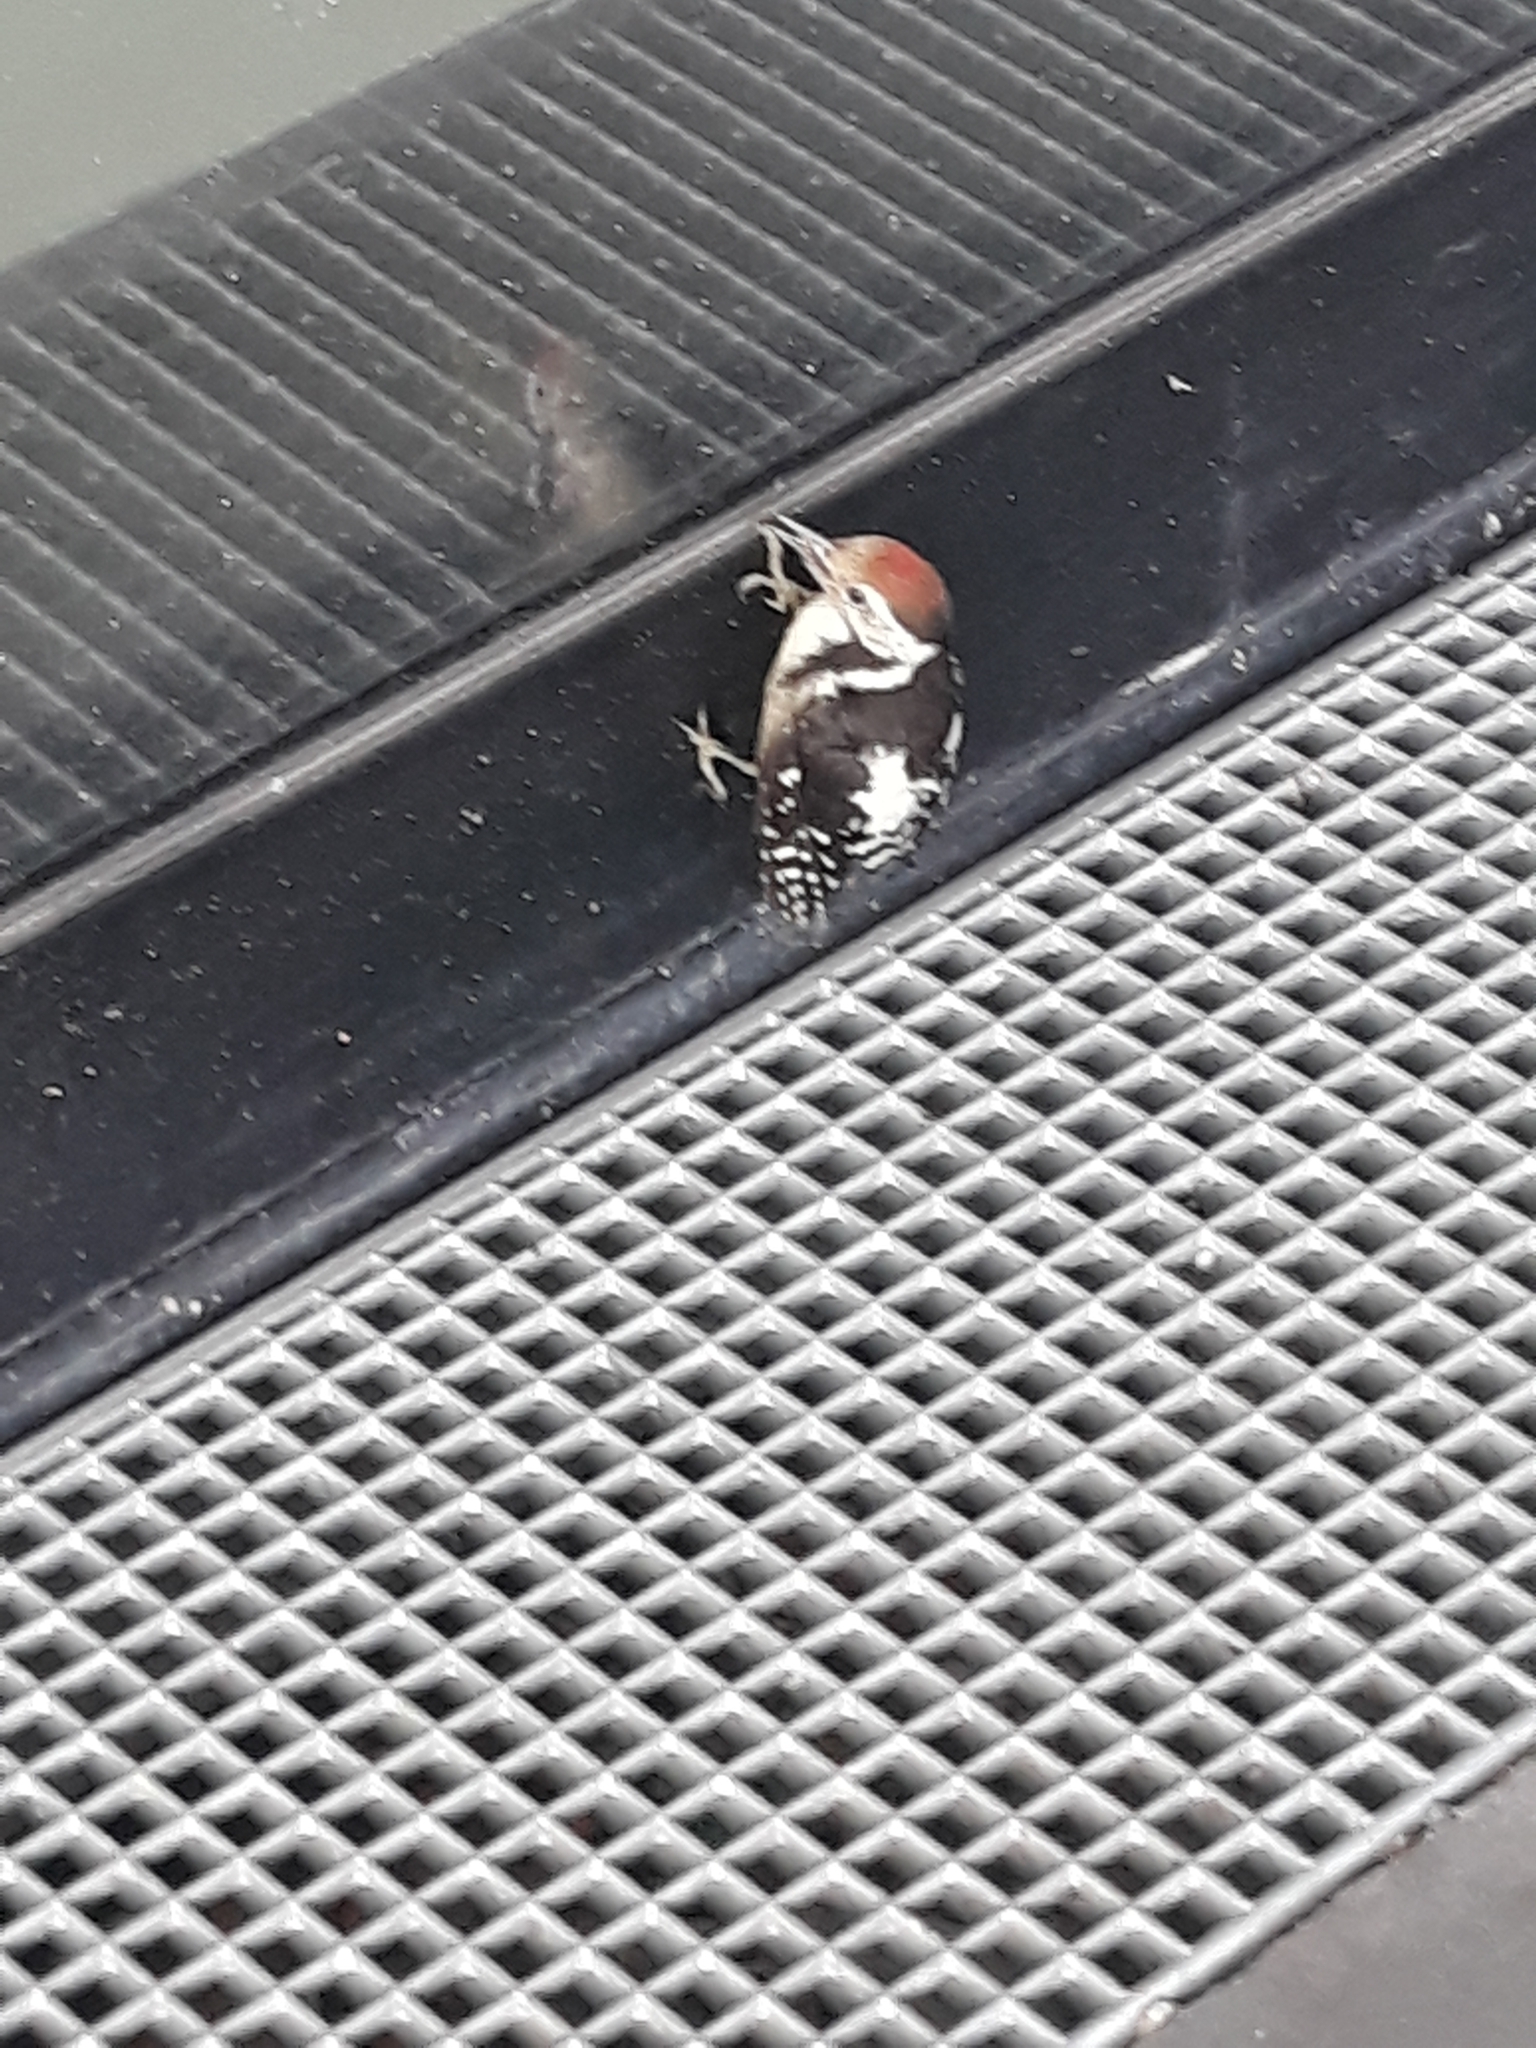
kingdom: Animalia
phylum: Chordata
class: Aves
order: Piciformes
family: Picidae
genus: Dendrocoptes
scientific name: Dendrocoptes medius
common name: Middle spotted woodpecker
